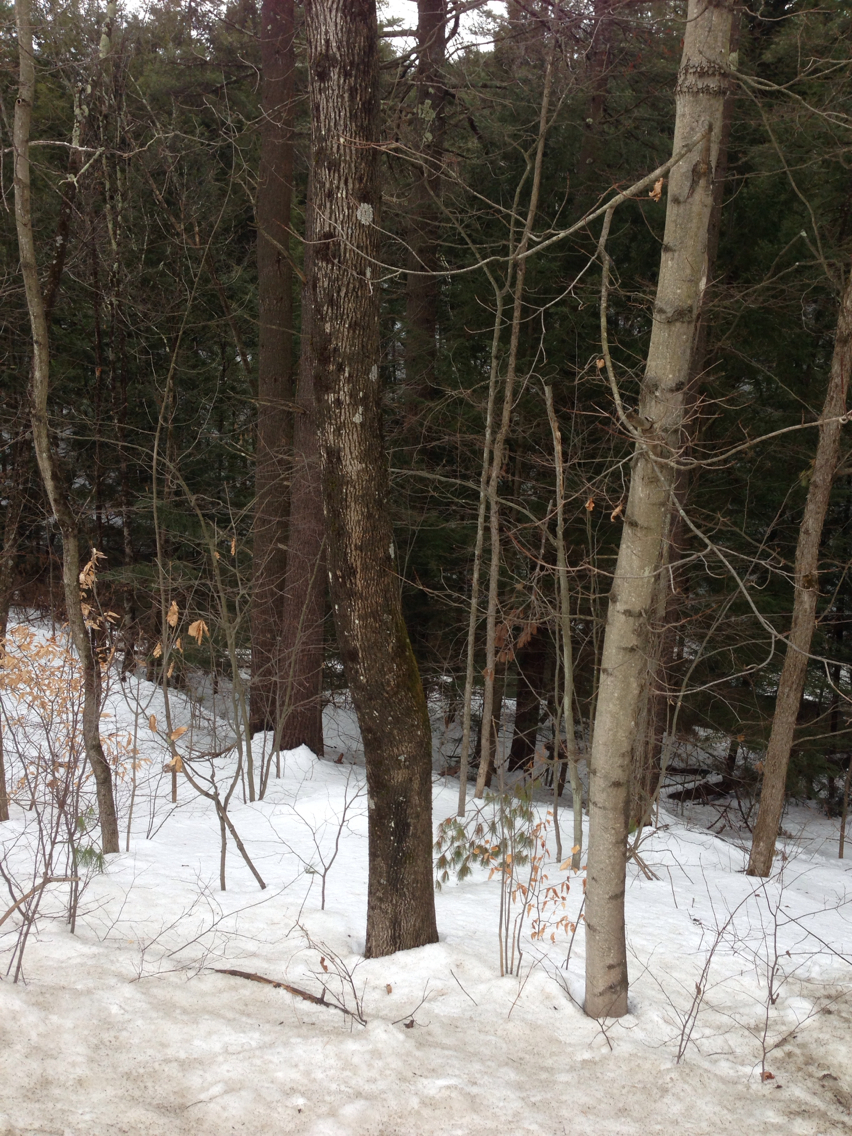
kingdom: Plantae
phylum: Tracheophyta
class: Magnoliopsida
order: Lamiales
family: Oleaceae
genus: Fraxinus
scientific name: Fraxinus americana
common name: White ash
